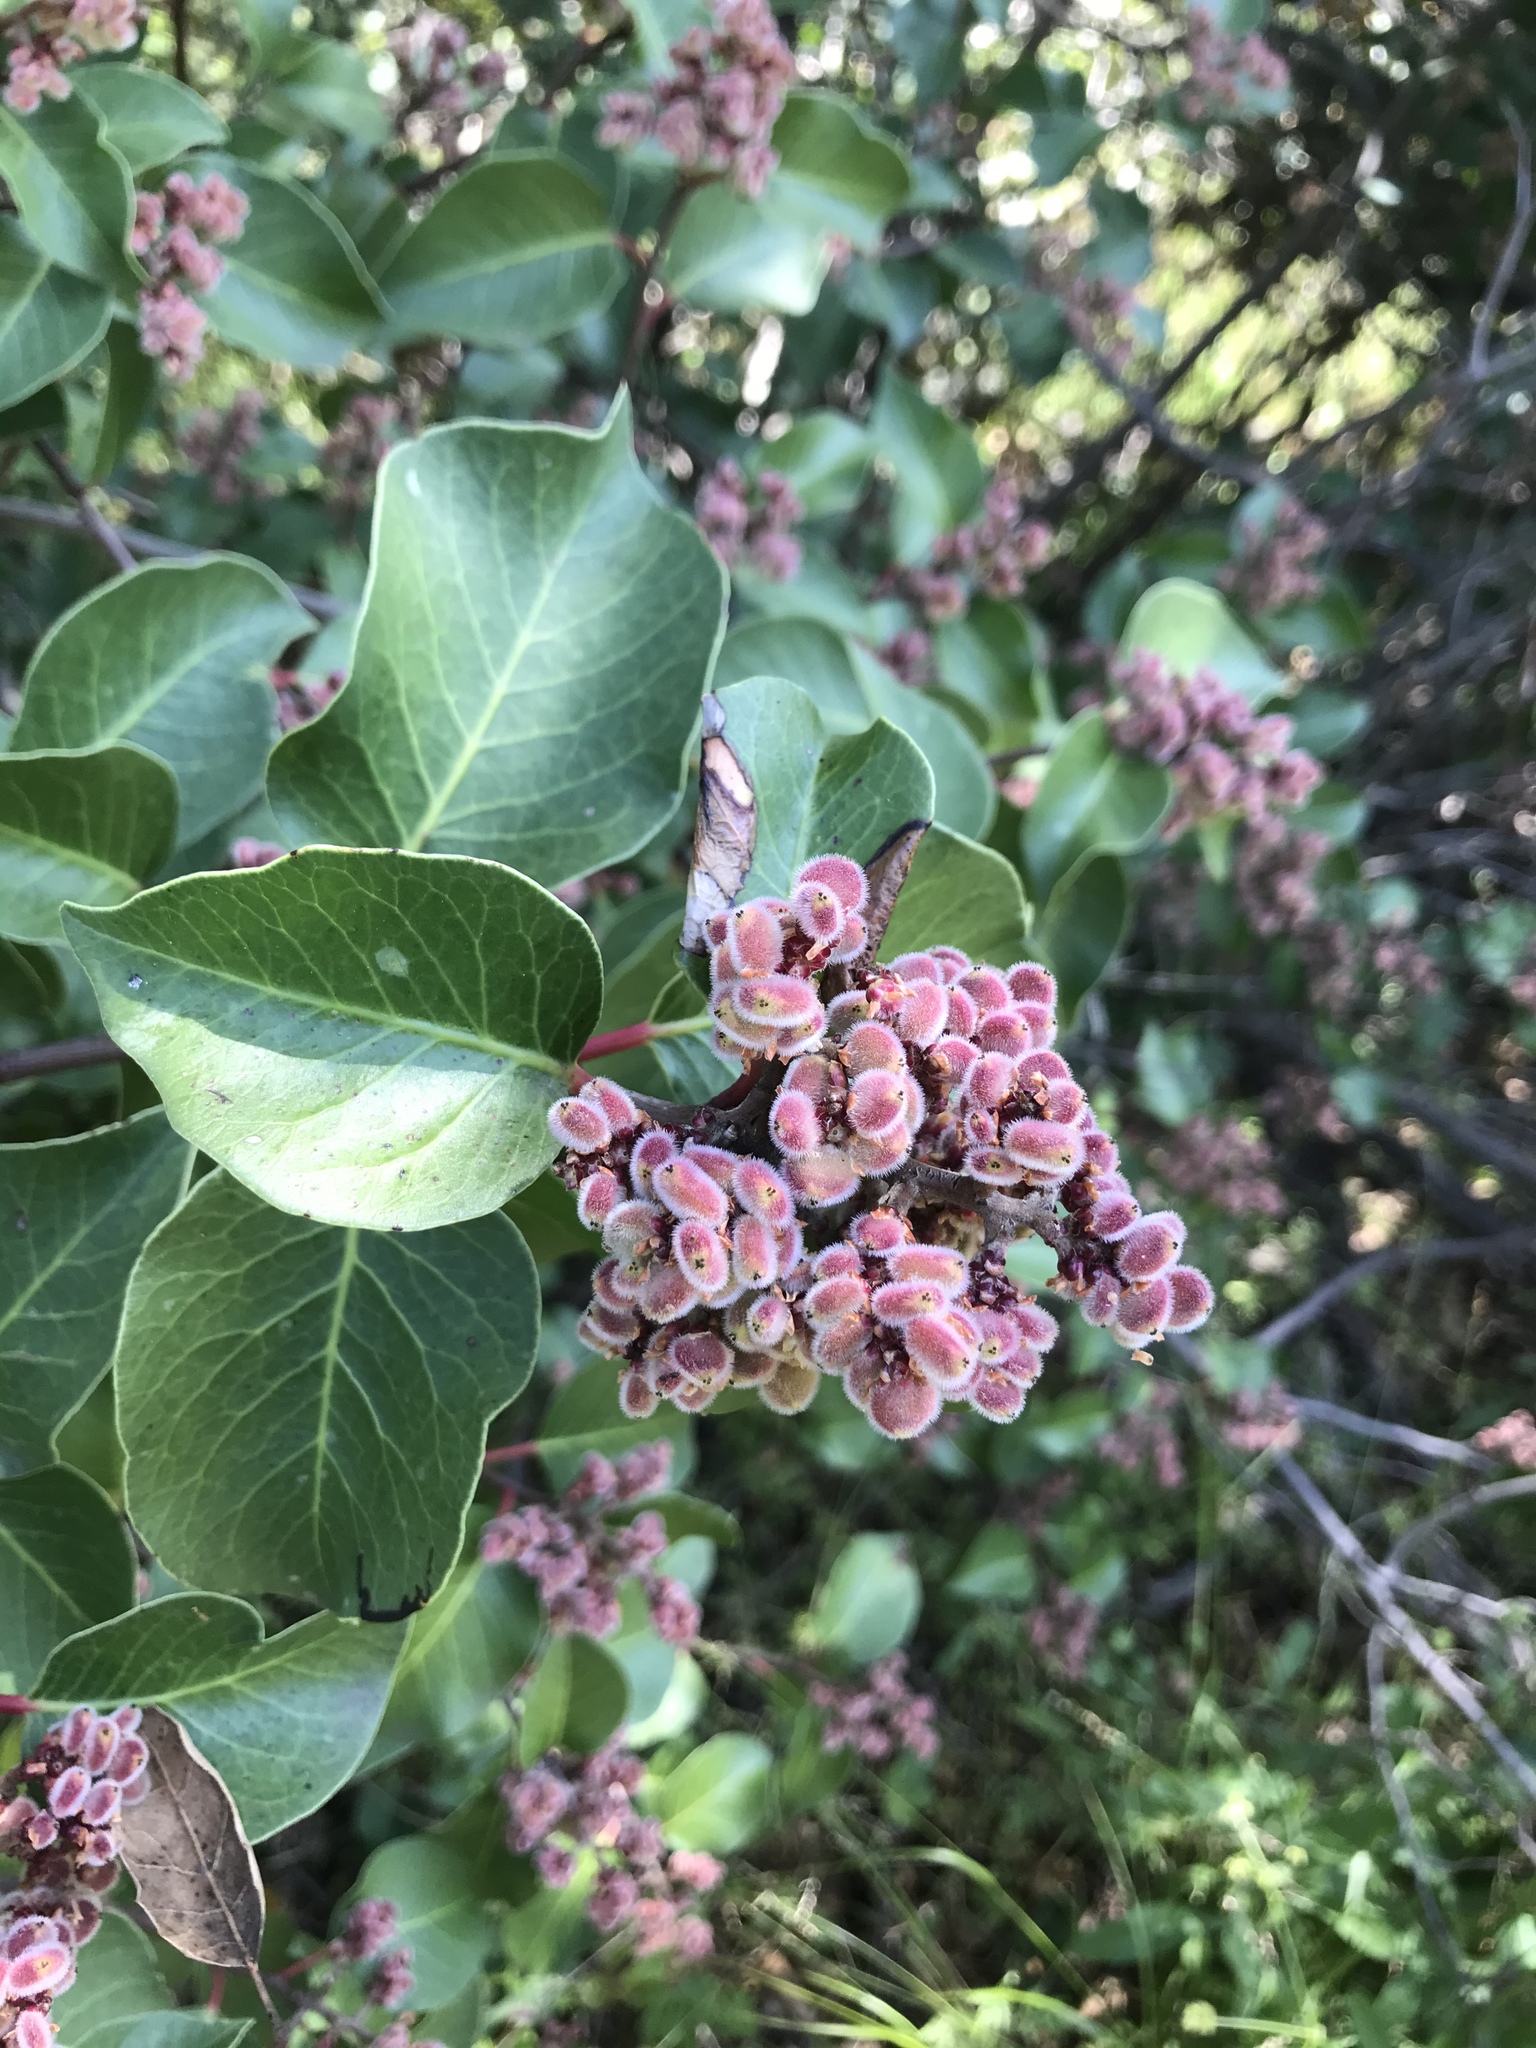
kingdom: Plantae
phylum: Tracheophyta
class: Magnoliopsida
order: Sapindales
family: Anacardiaceae
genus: Rhus
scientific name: Rhus ovata
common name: Sugar sumac
